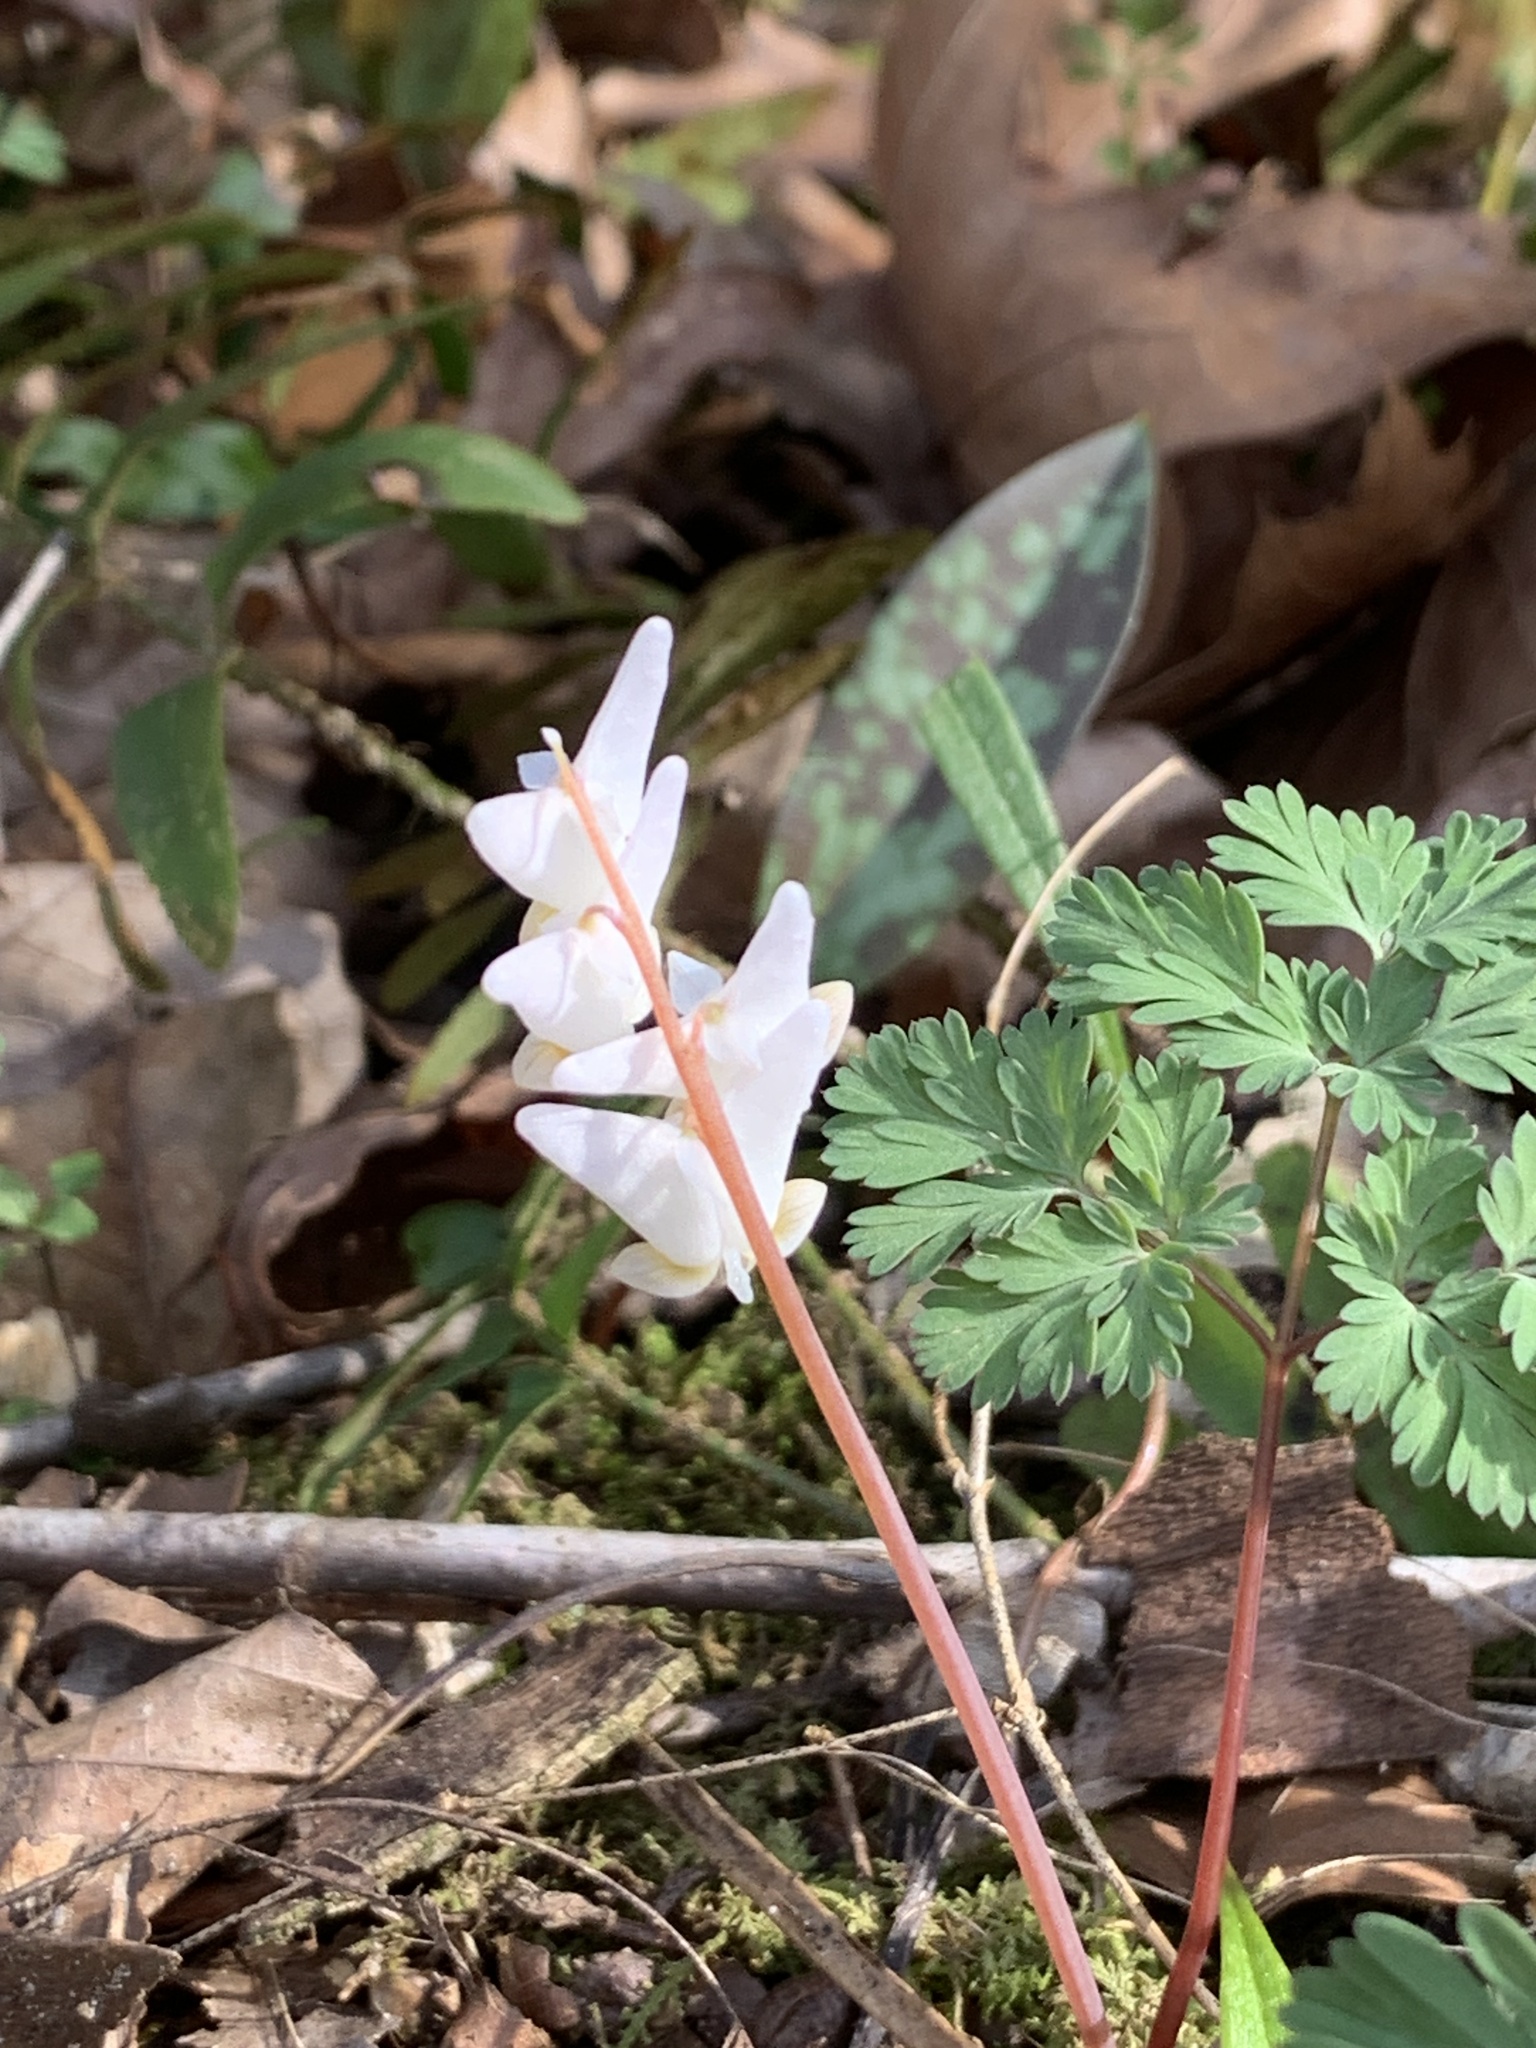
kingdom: Plantae
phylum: Tracheophyta
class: Magnoliopsida
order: Ranunculales
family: Papaveraceae
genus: Dicentra
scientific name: Dicentra cucullaria
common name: Dutchman's breeches
